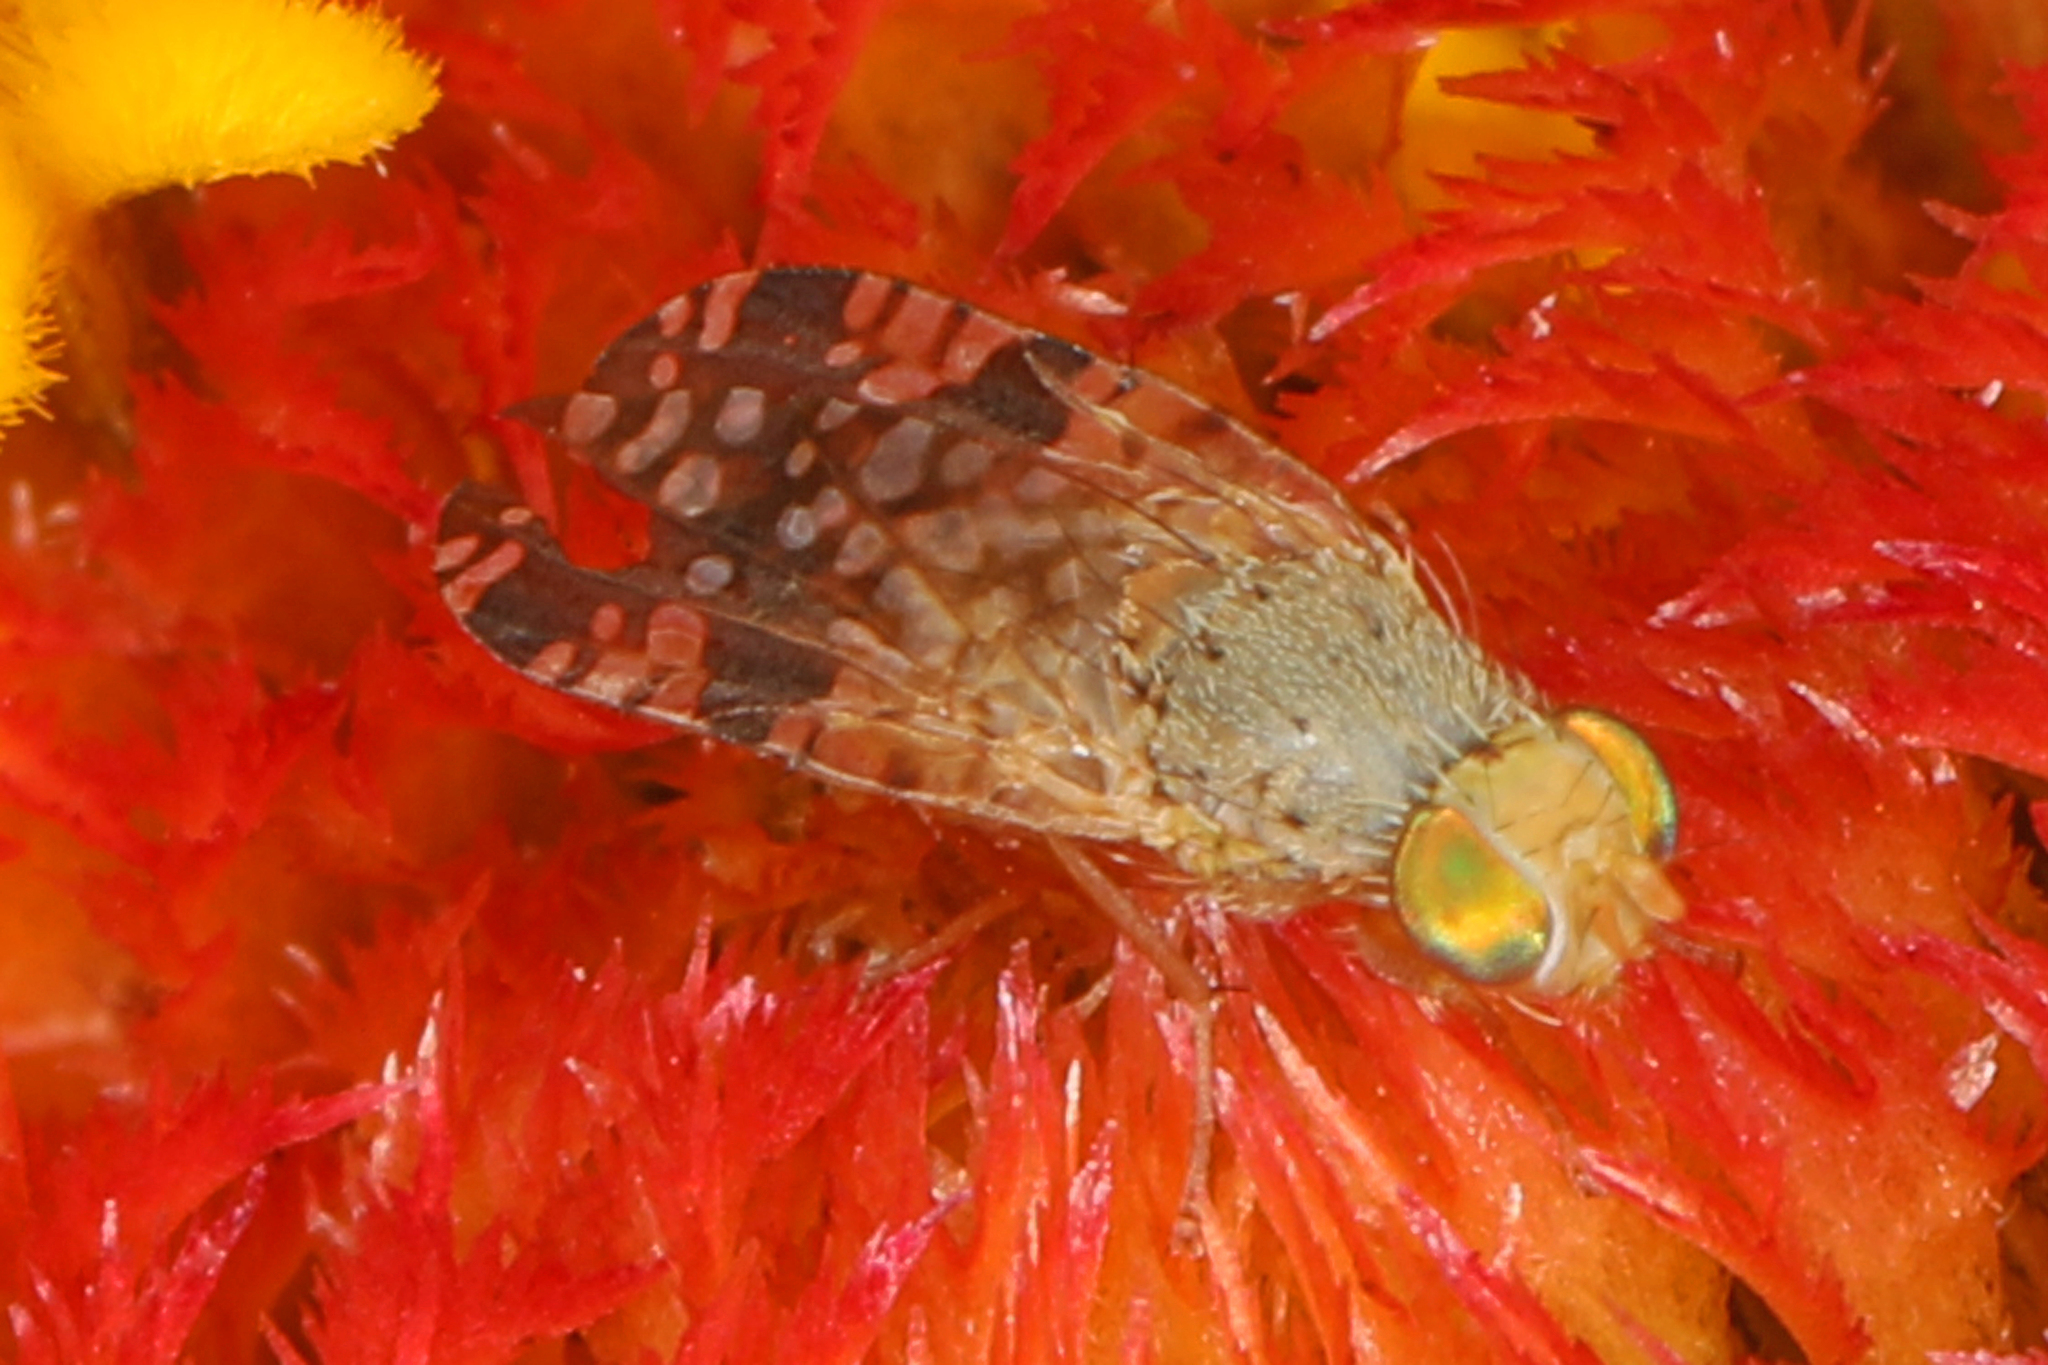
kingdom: Animalia
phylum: Arthropoda
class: Insecta
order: Diptera
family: Tephritidae
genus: Neotephritis
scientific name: Neotephritis finalis
